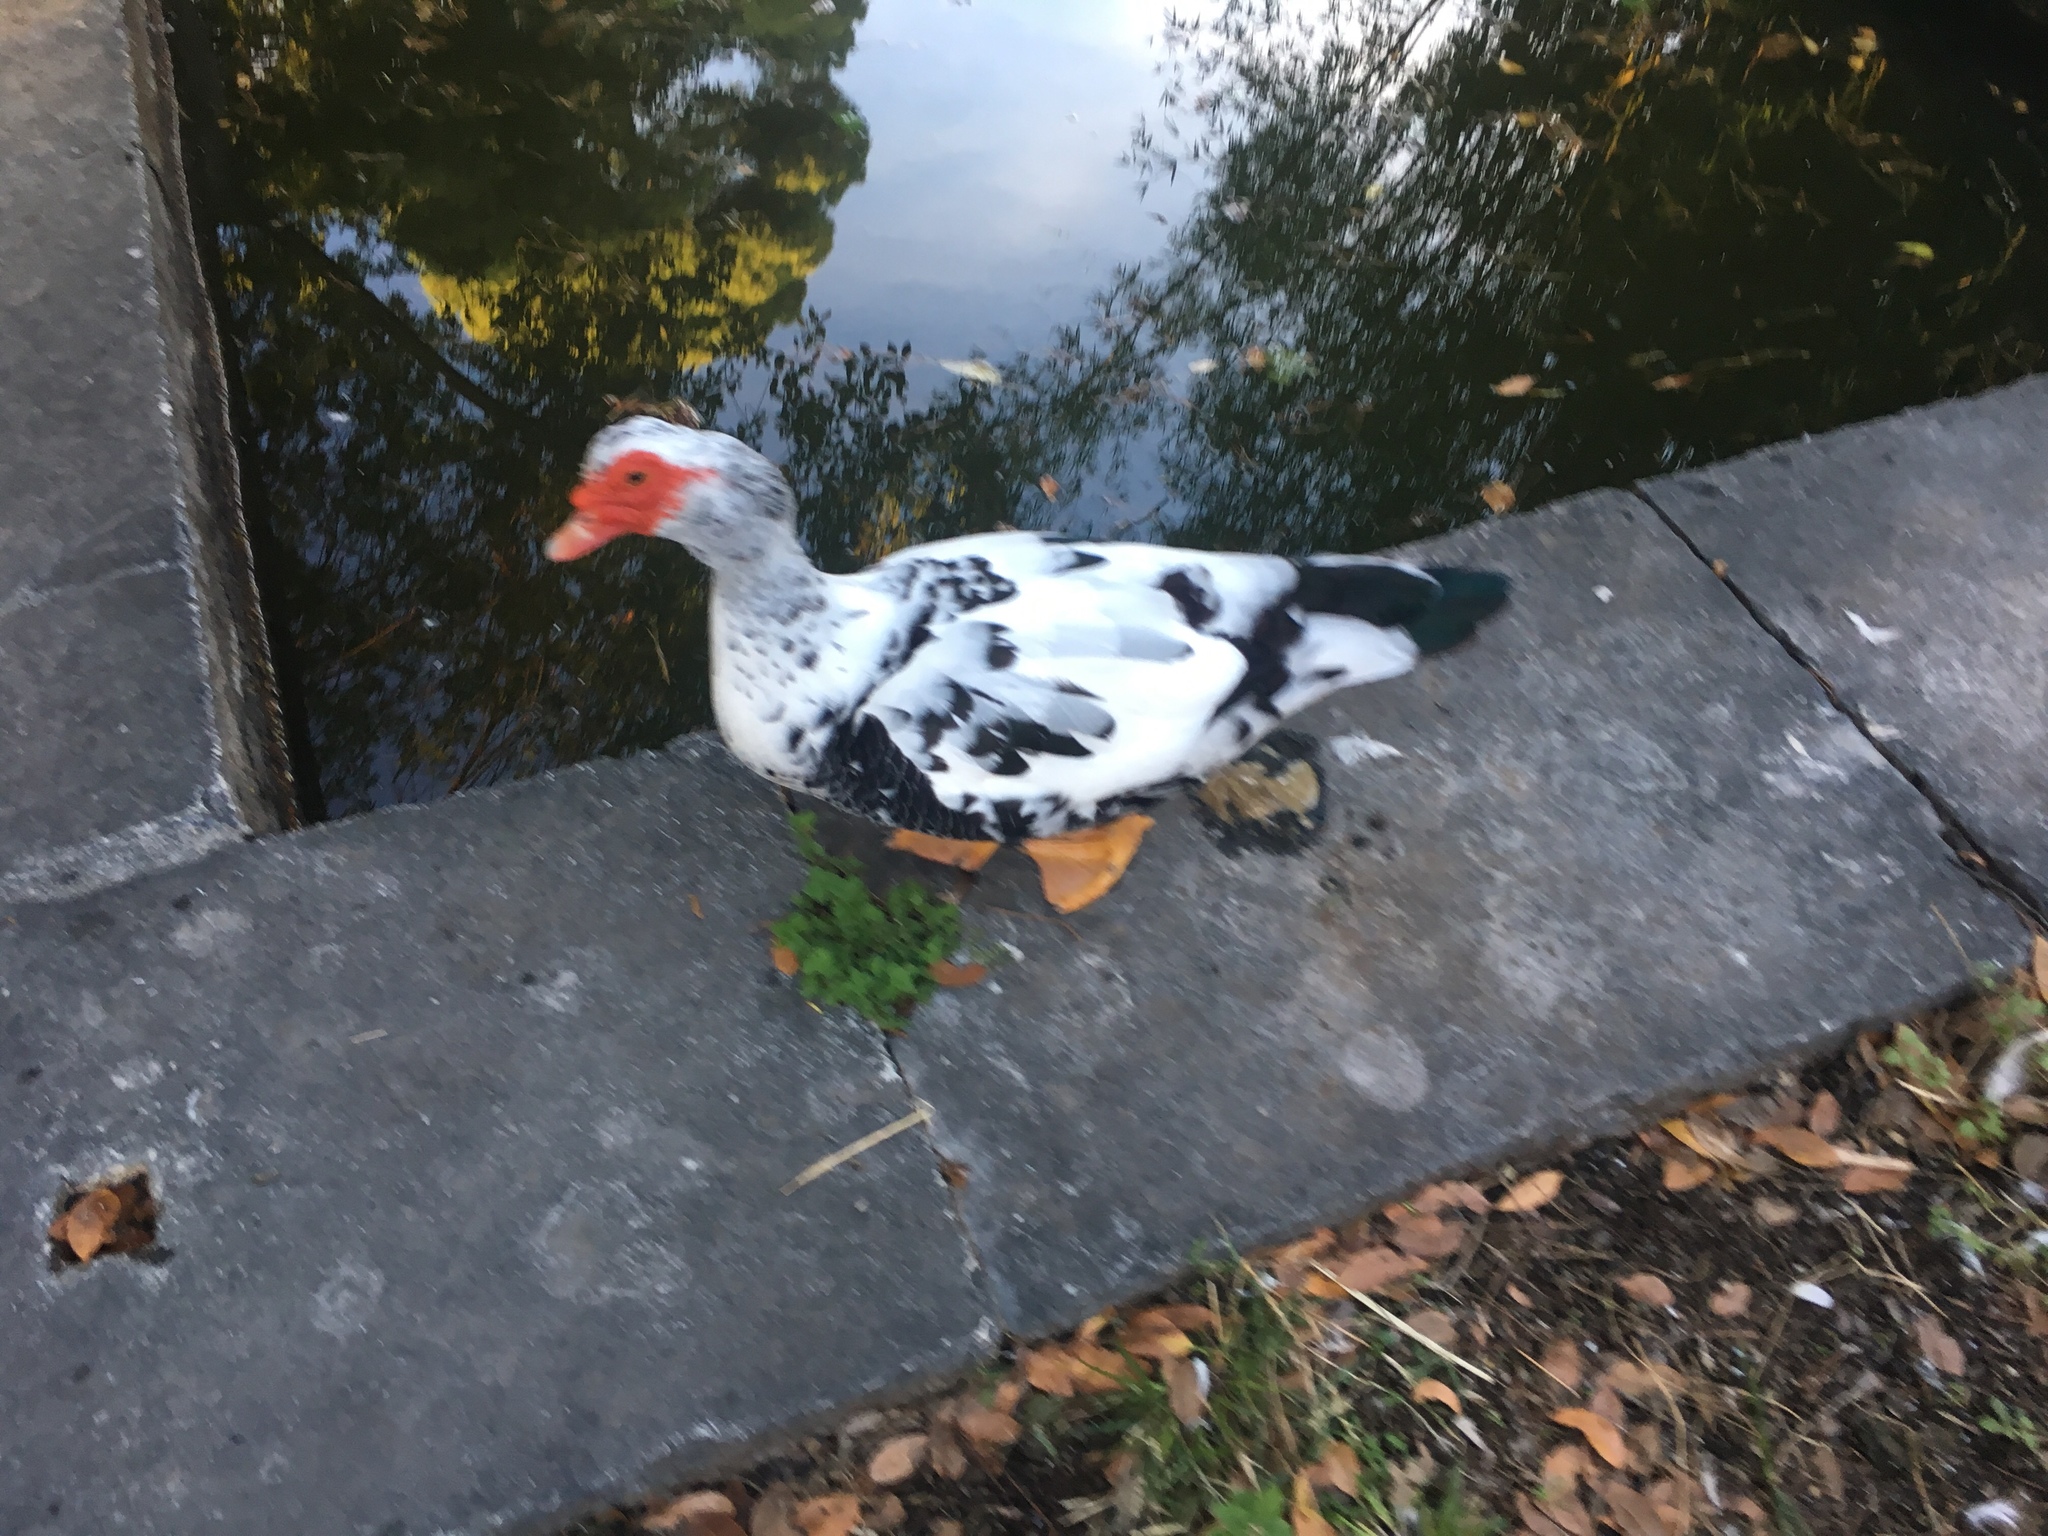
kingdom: Animalia
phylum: Chordata
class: Aves
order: Anseriformes
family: Anatidae
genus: Cairina
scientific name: Cairina moschata
